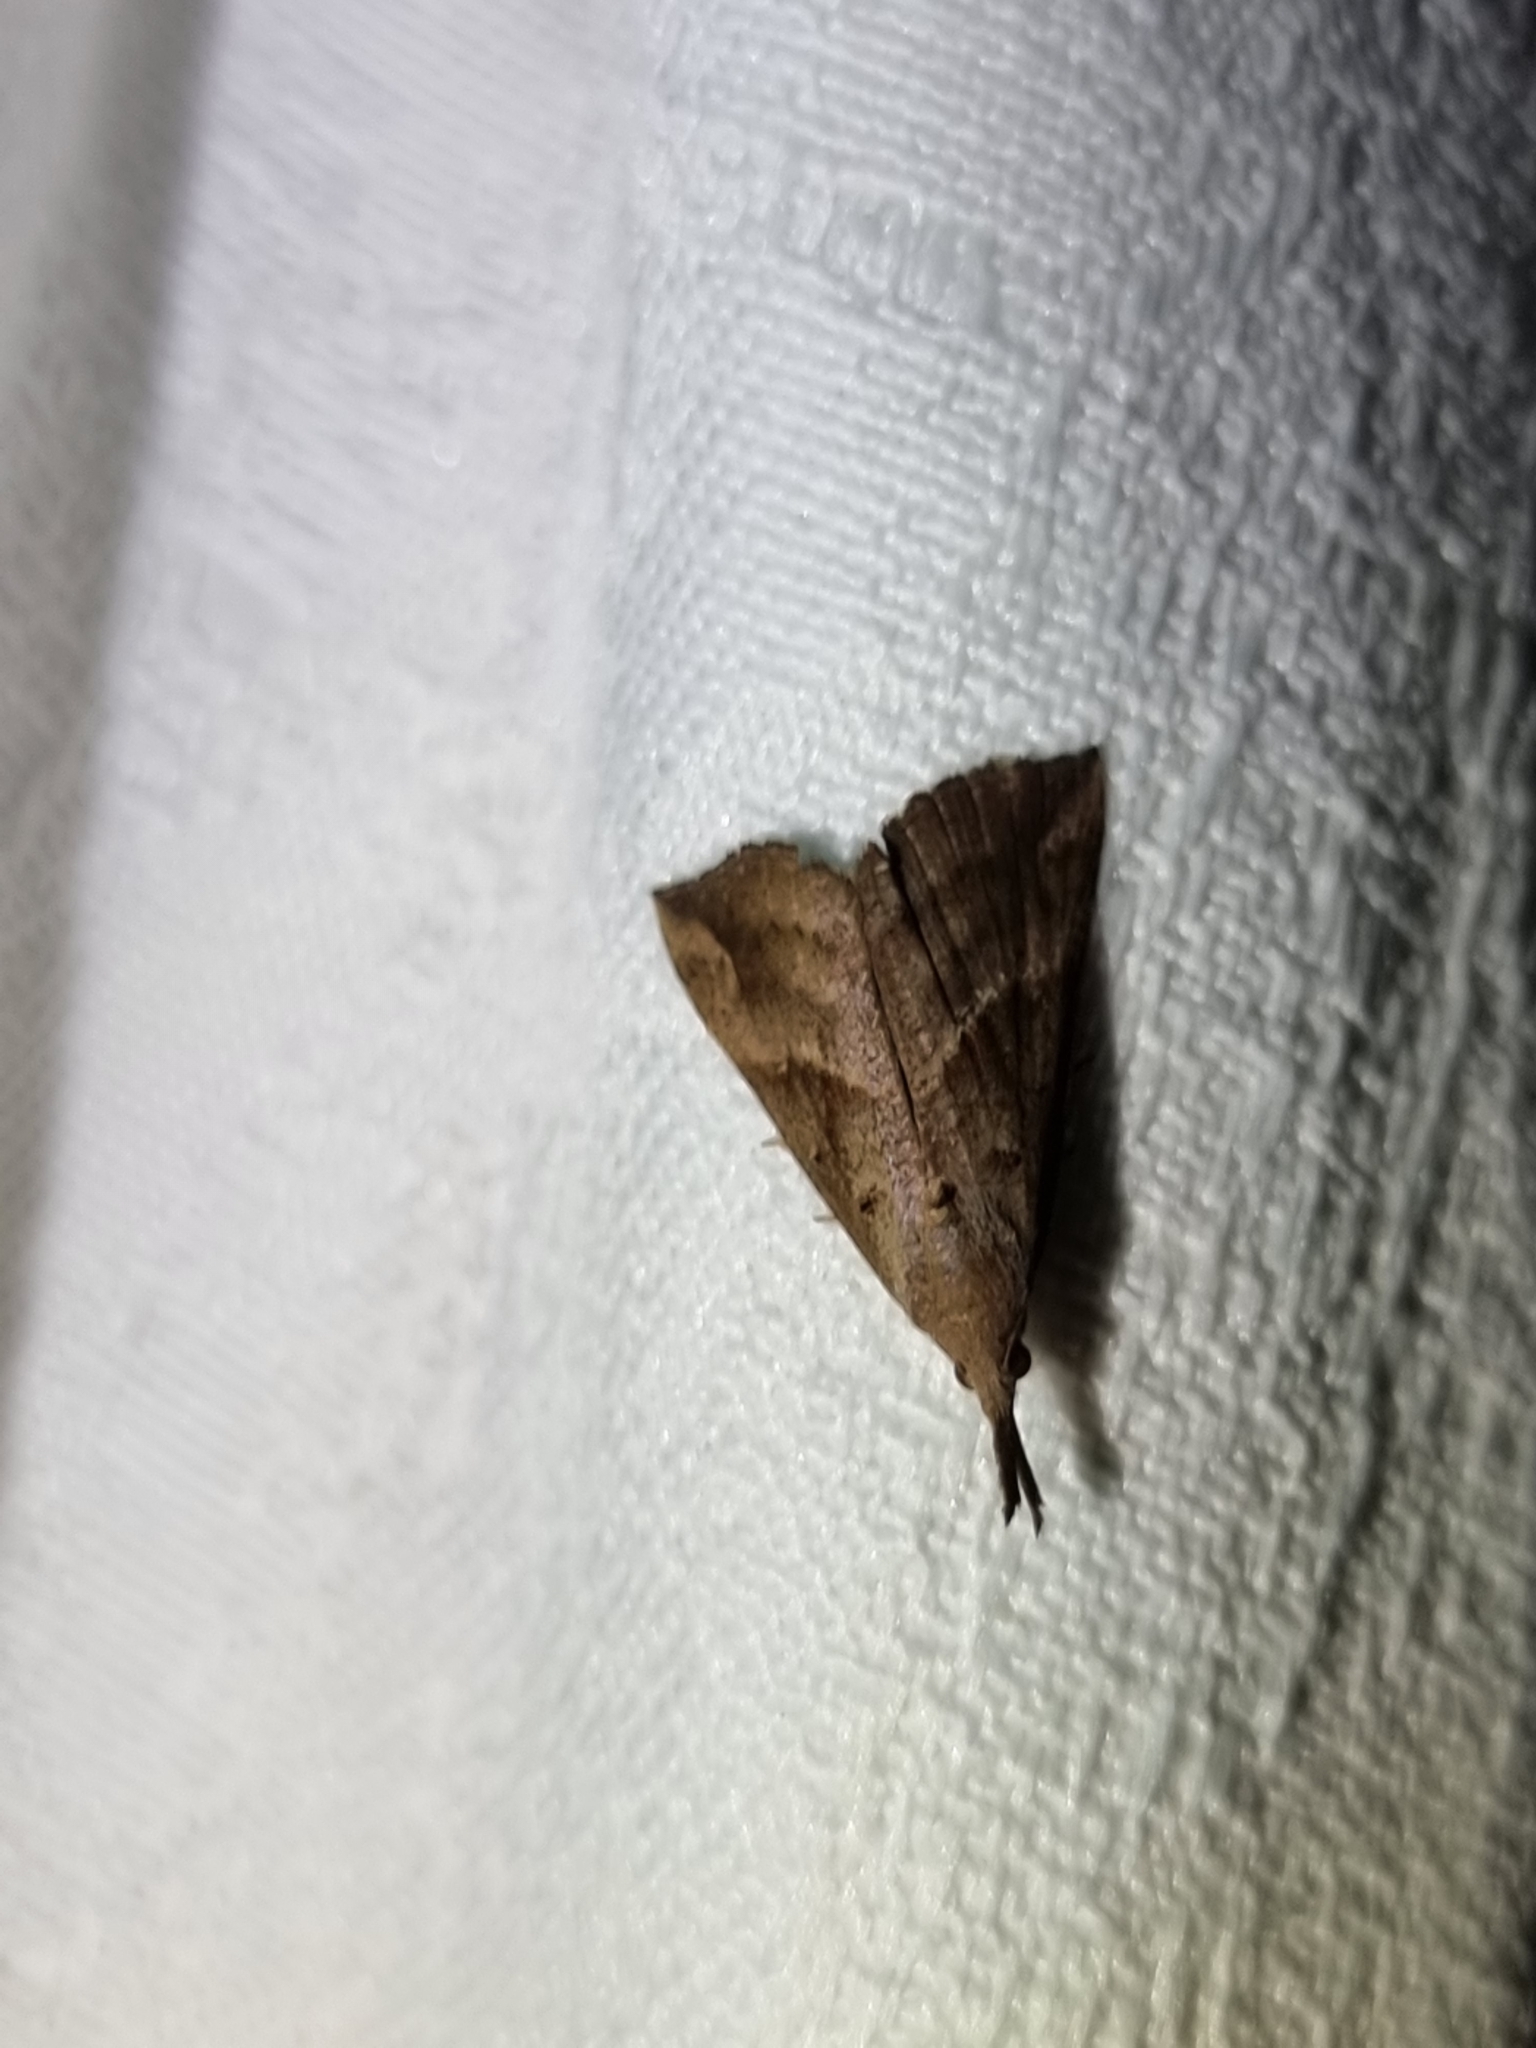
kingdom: Animalia
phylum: Arthropoda
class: Insecta
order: Lepidoptera
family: Erebidae
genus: Hypena
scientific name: Hypena pelodes
